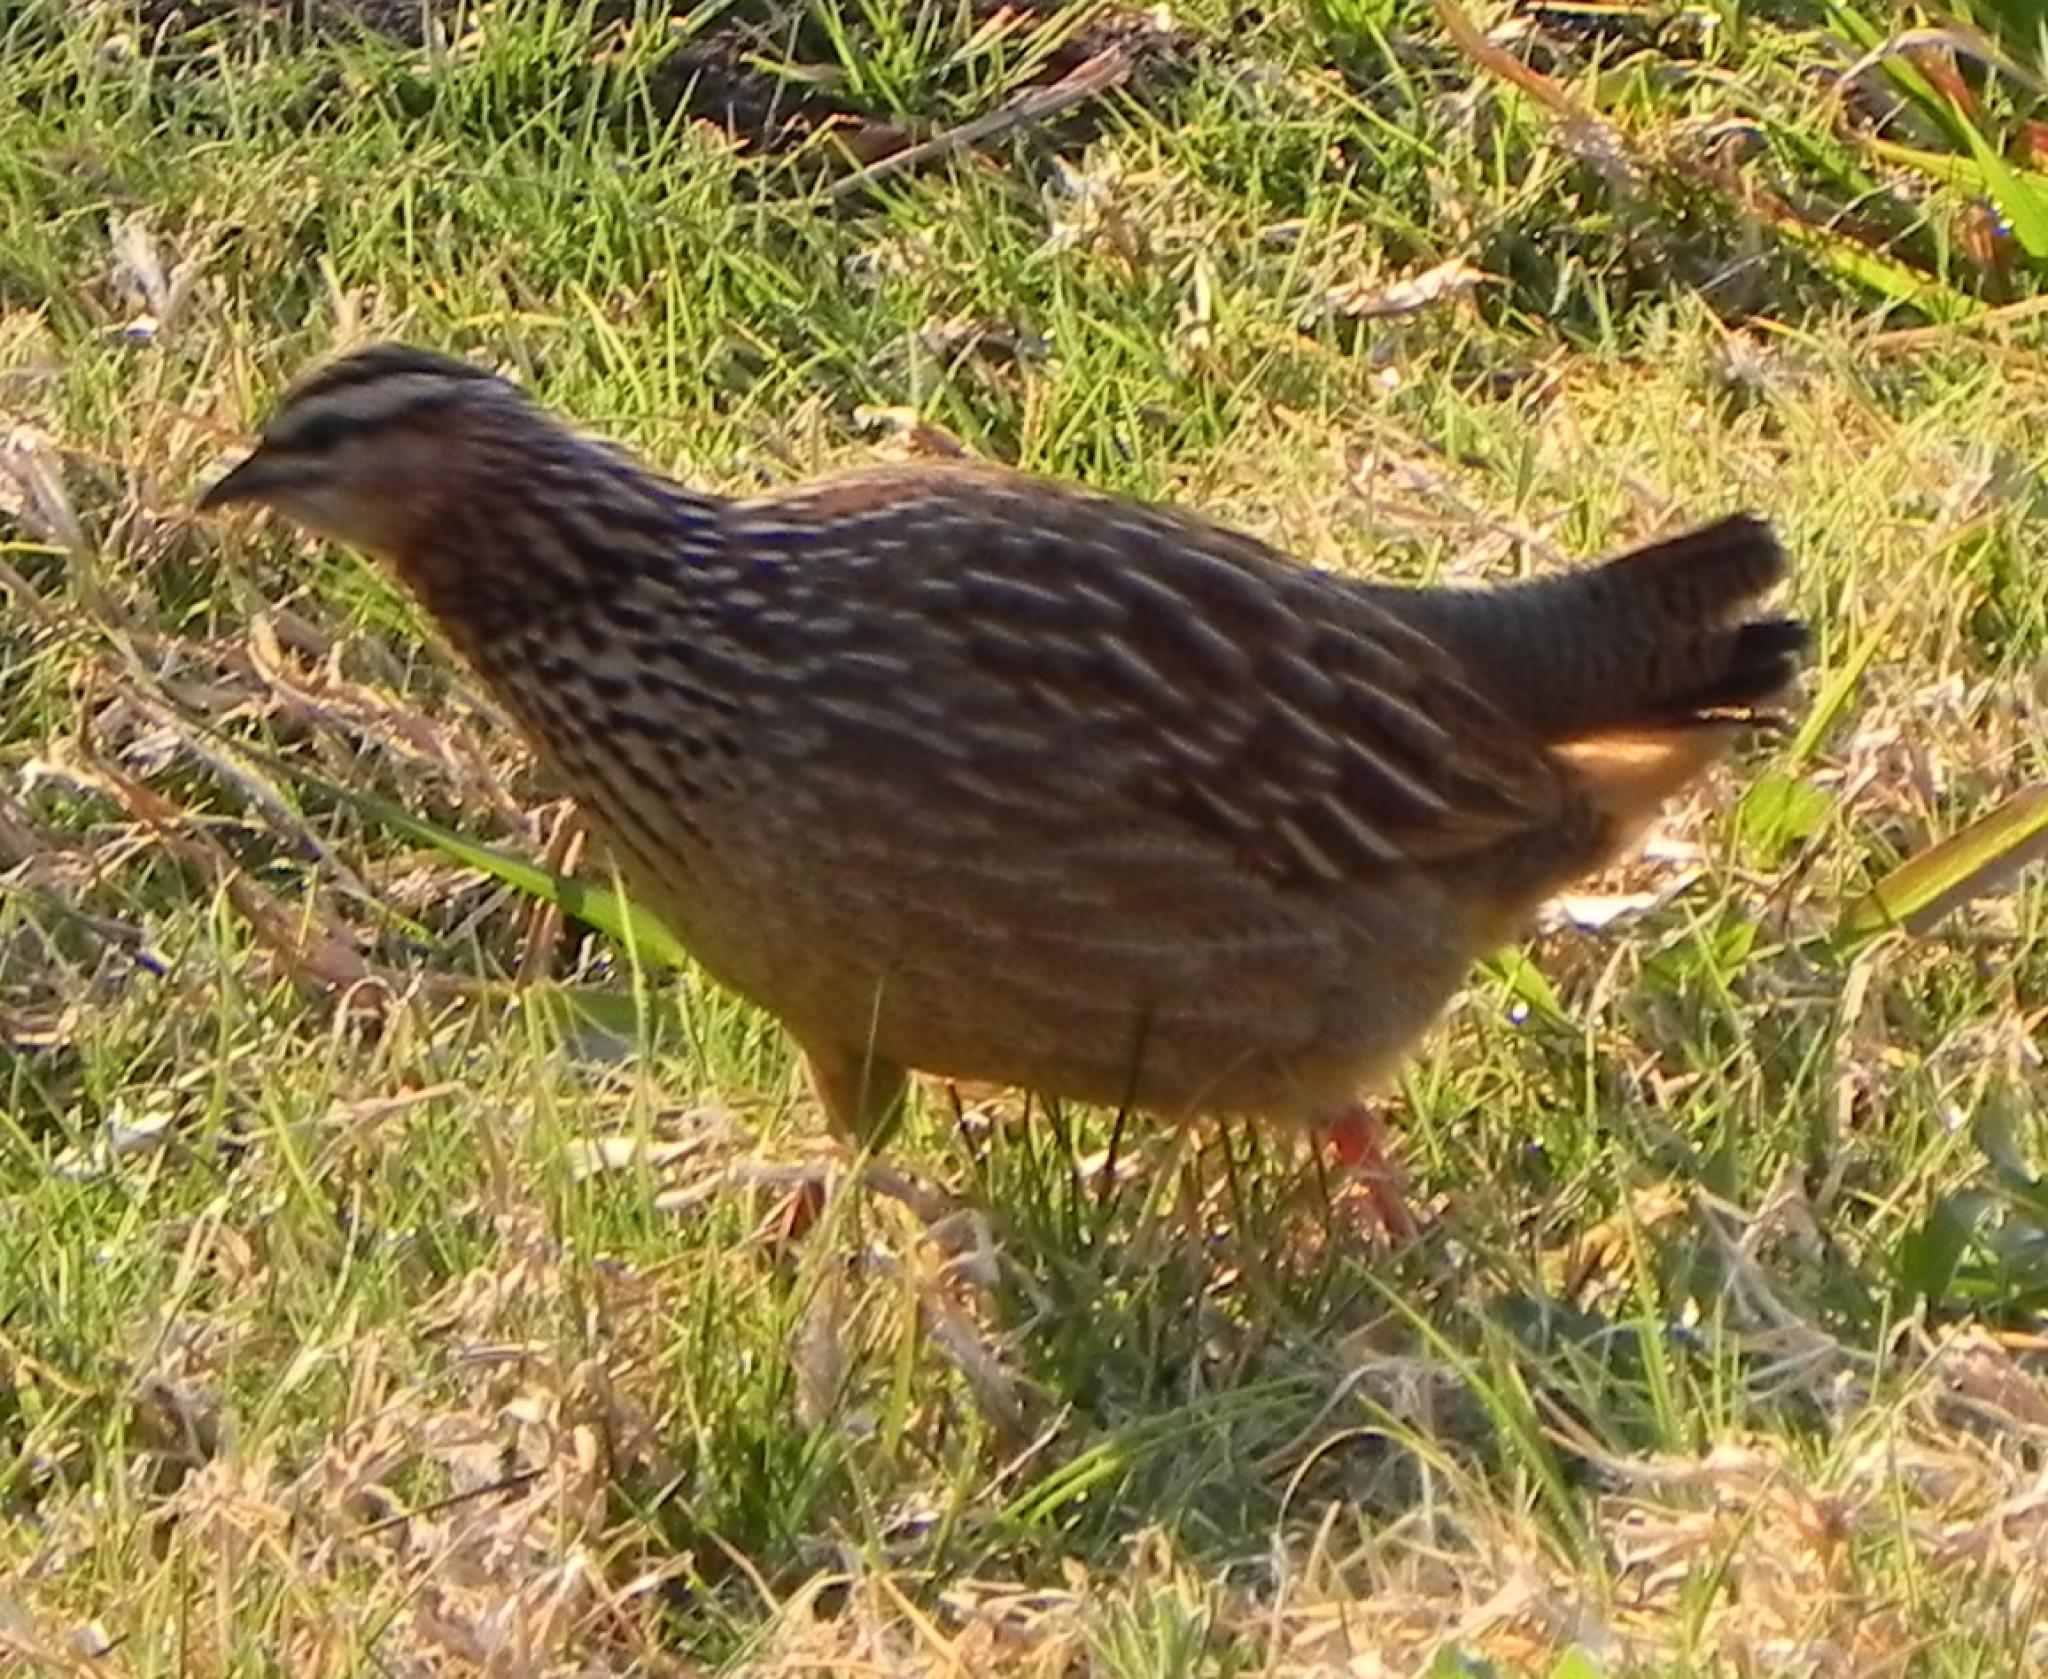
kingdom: Animalia
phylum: Chordata
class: Aves
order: Galliformes
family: Phasianidae
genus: Ortygornis
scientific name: Ortygornis sephaena
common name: Crested francolin
